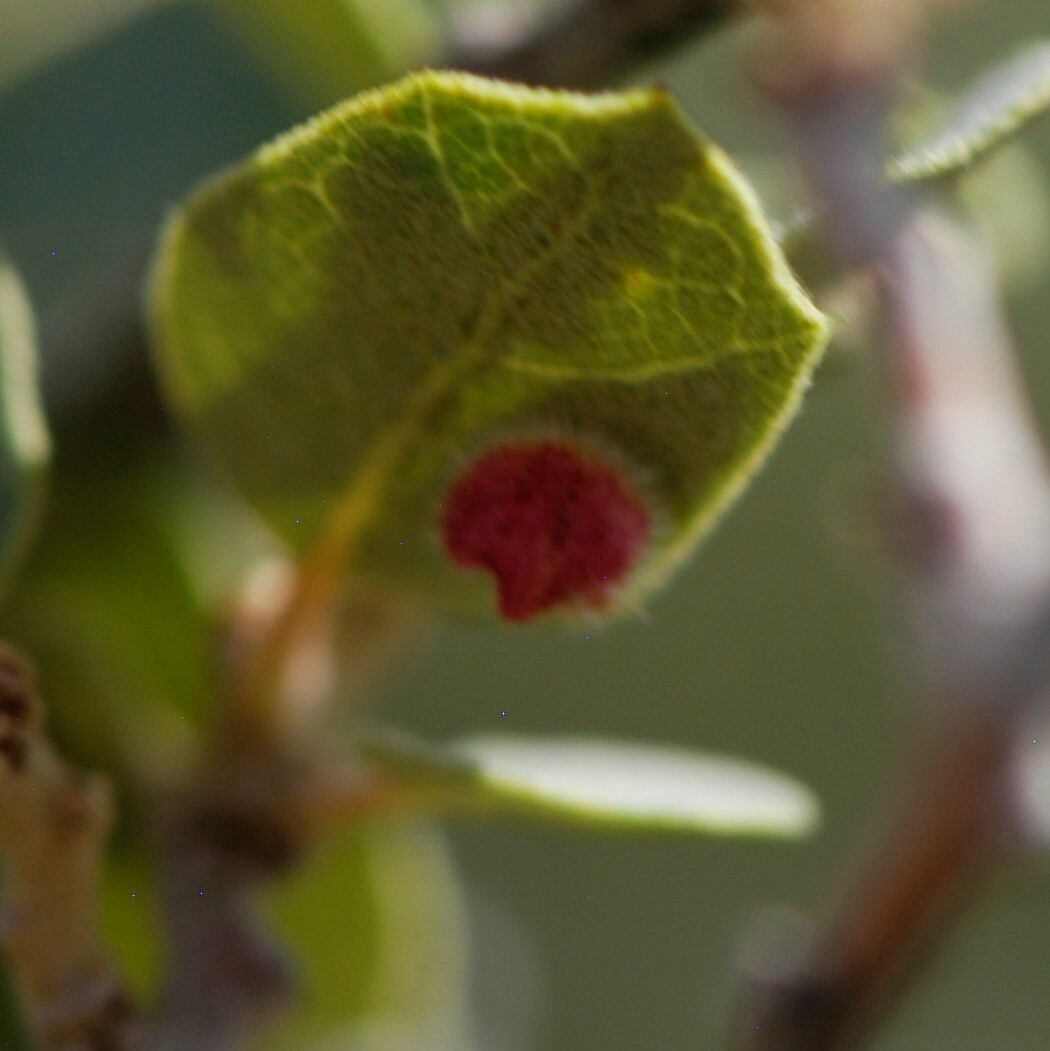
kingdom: Animalia
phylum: Arthropoda
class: Insecta
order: Hymenoptera
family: Cynipidae
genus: Andricus
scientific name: Andricus
